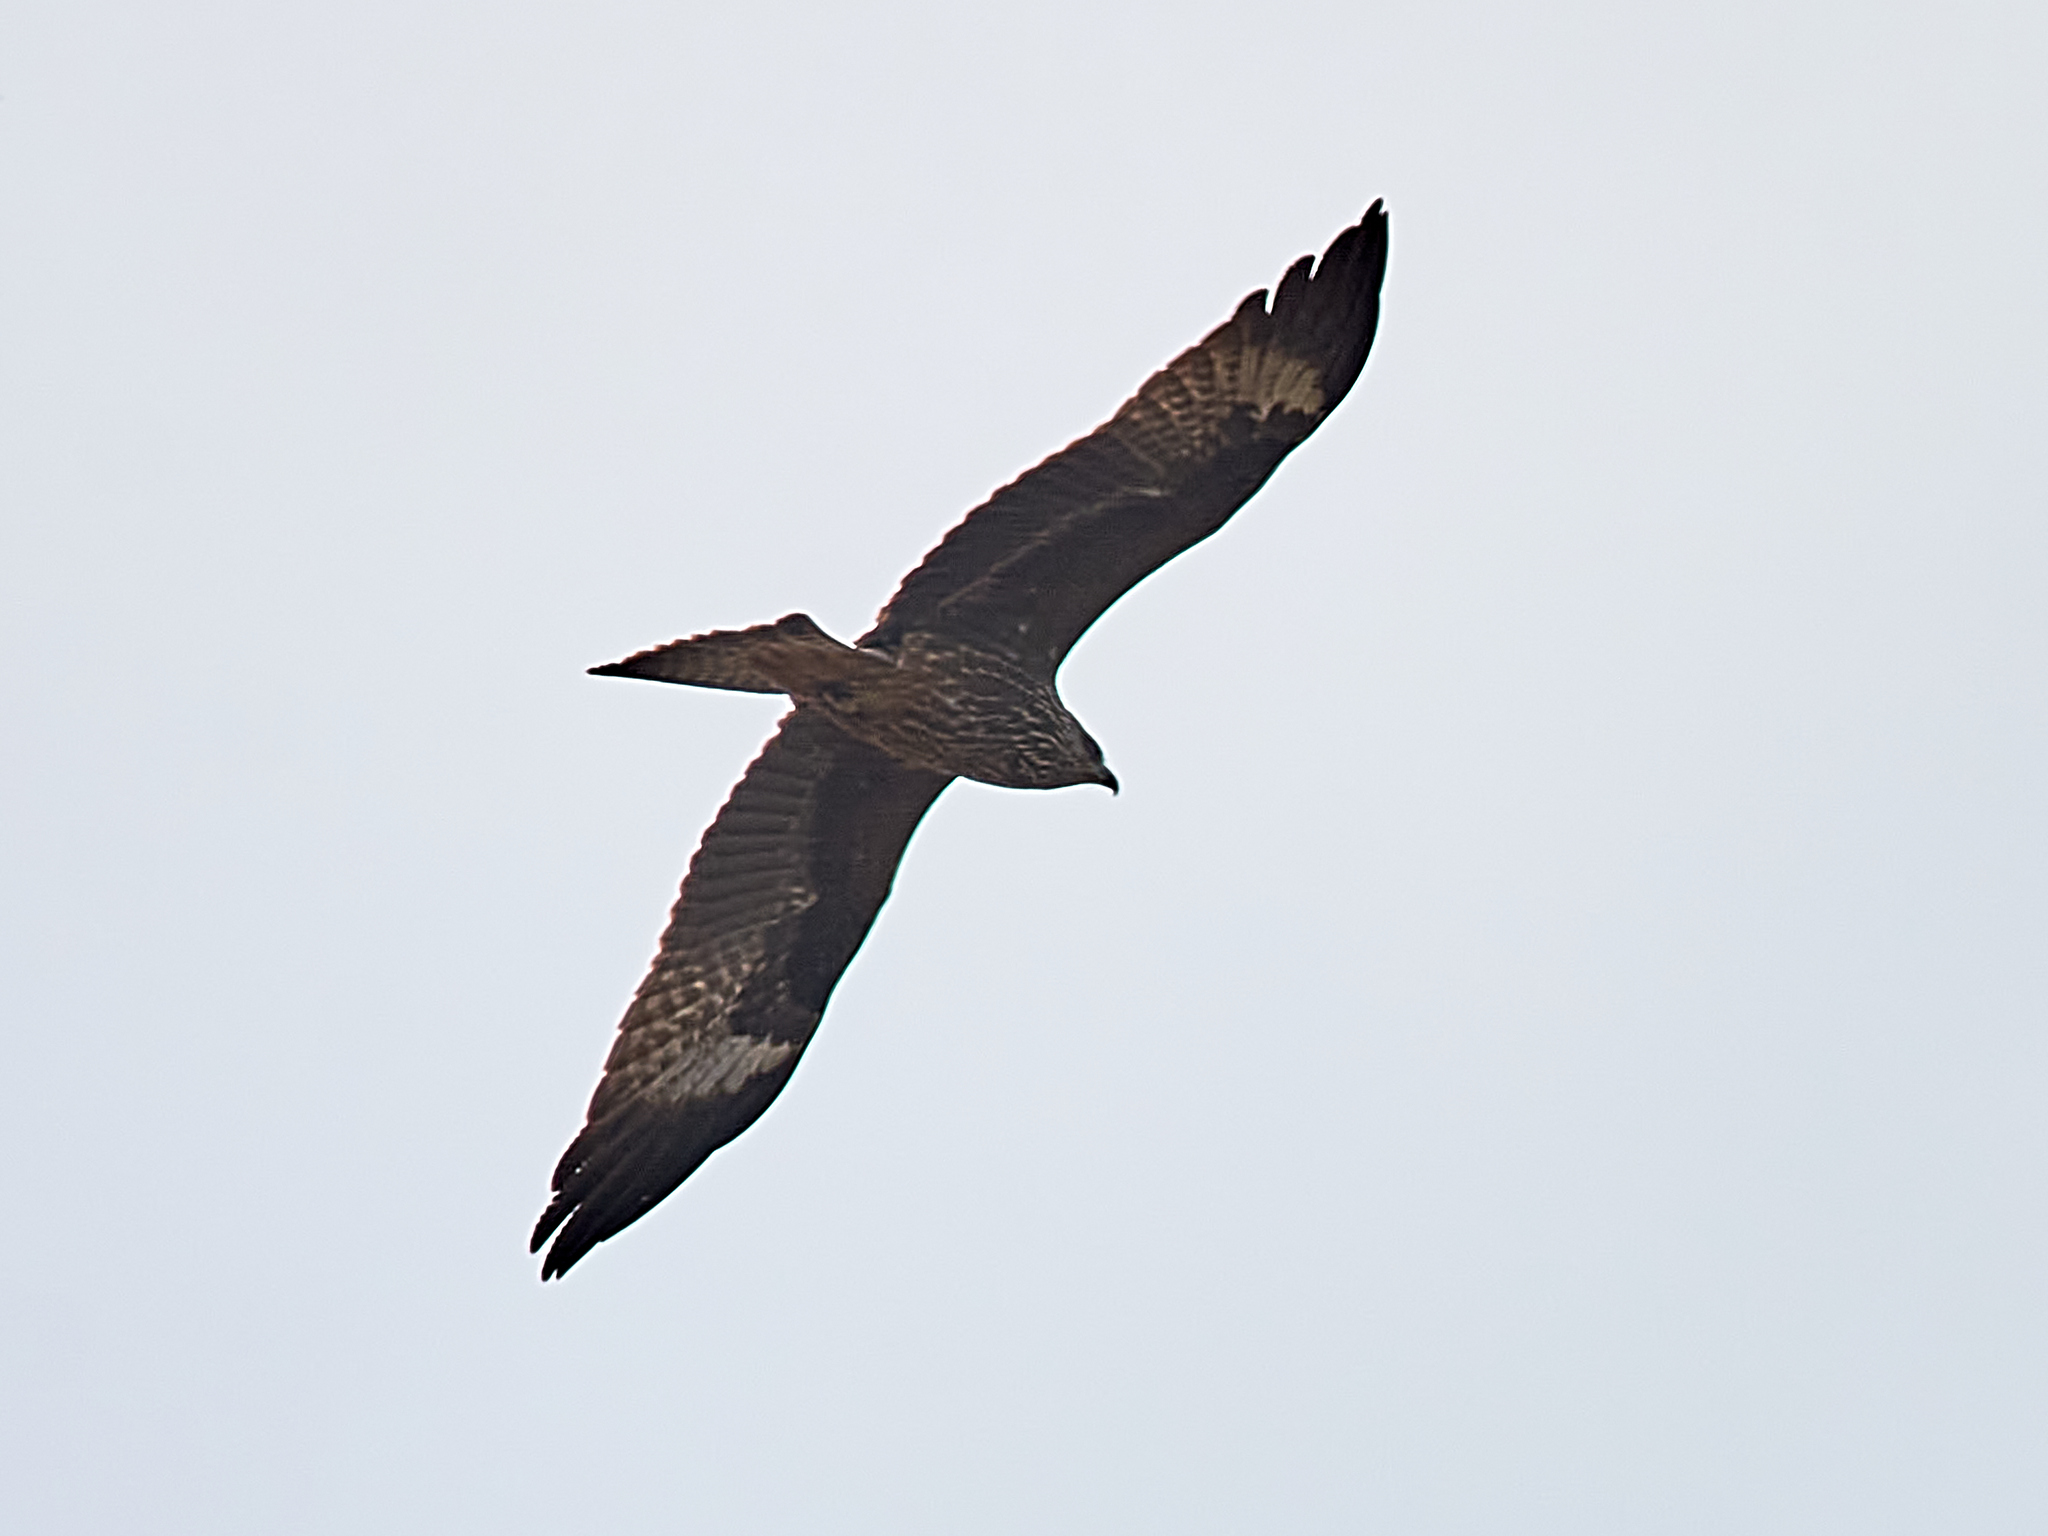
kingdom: Animalia
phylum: Chordata
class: Aves
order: Accipitriformes
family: Accipitridae
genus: Milvus
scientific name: Milvus migrans
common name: Black kite
